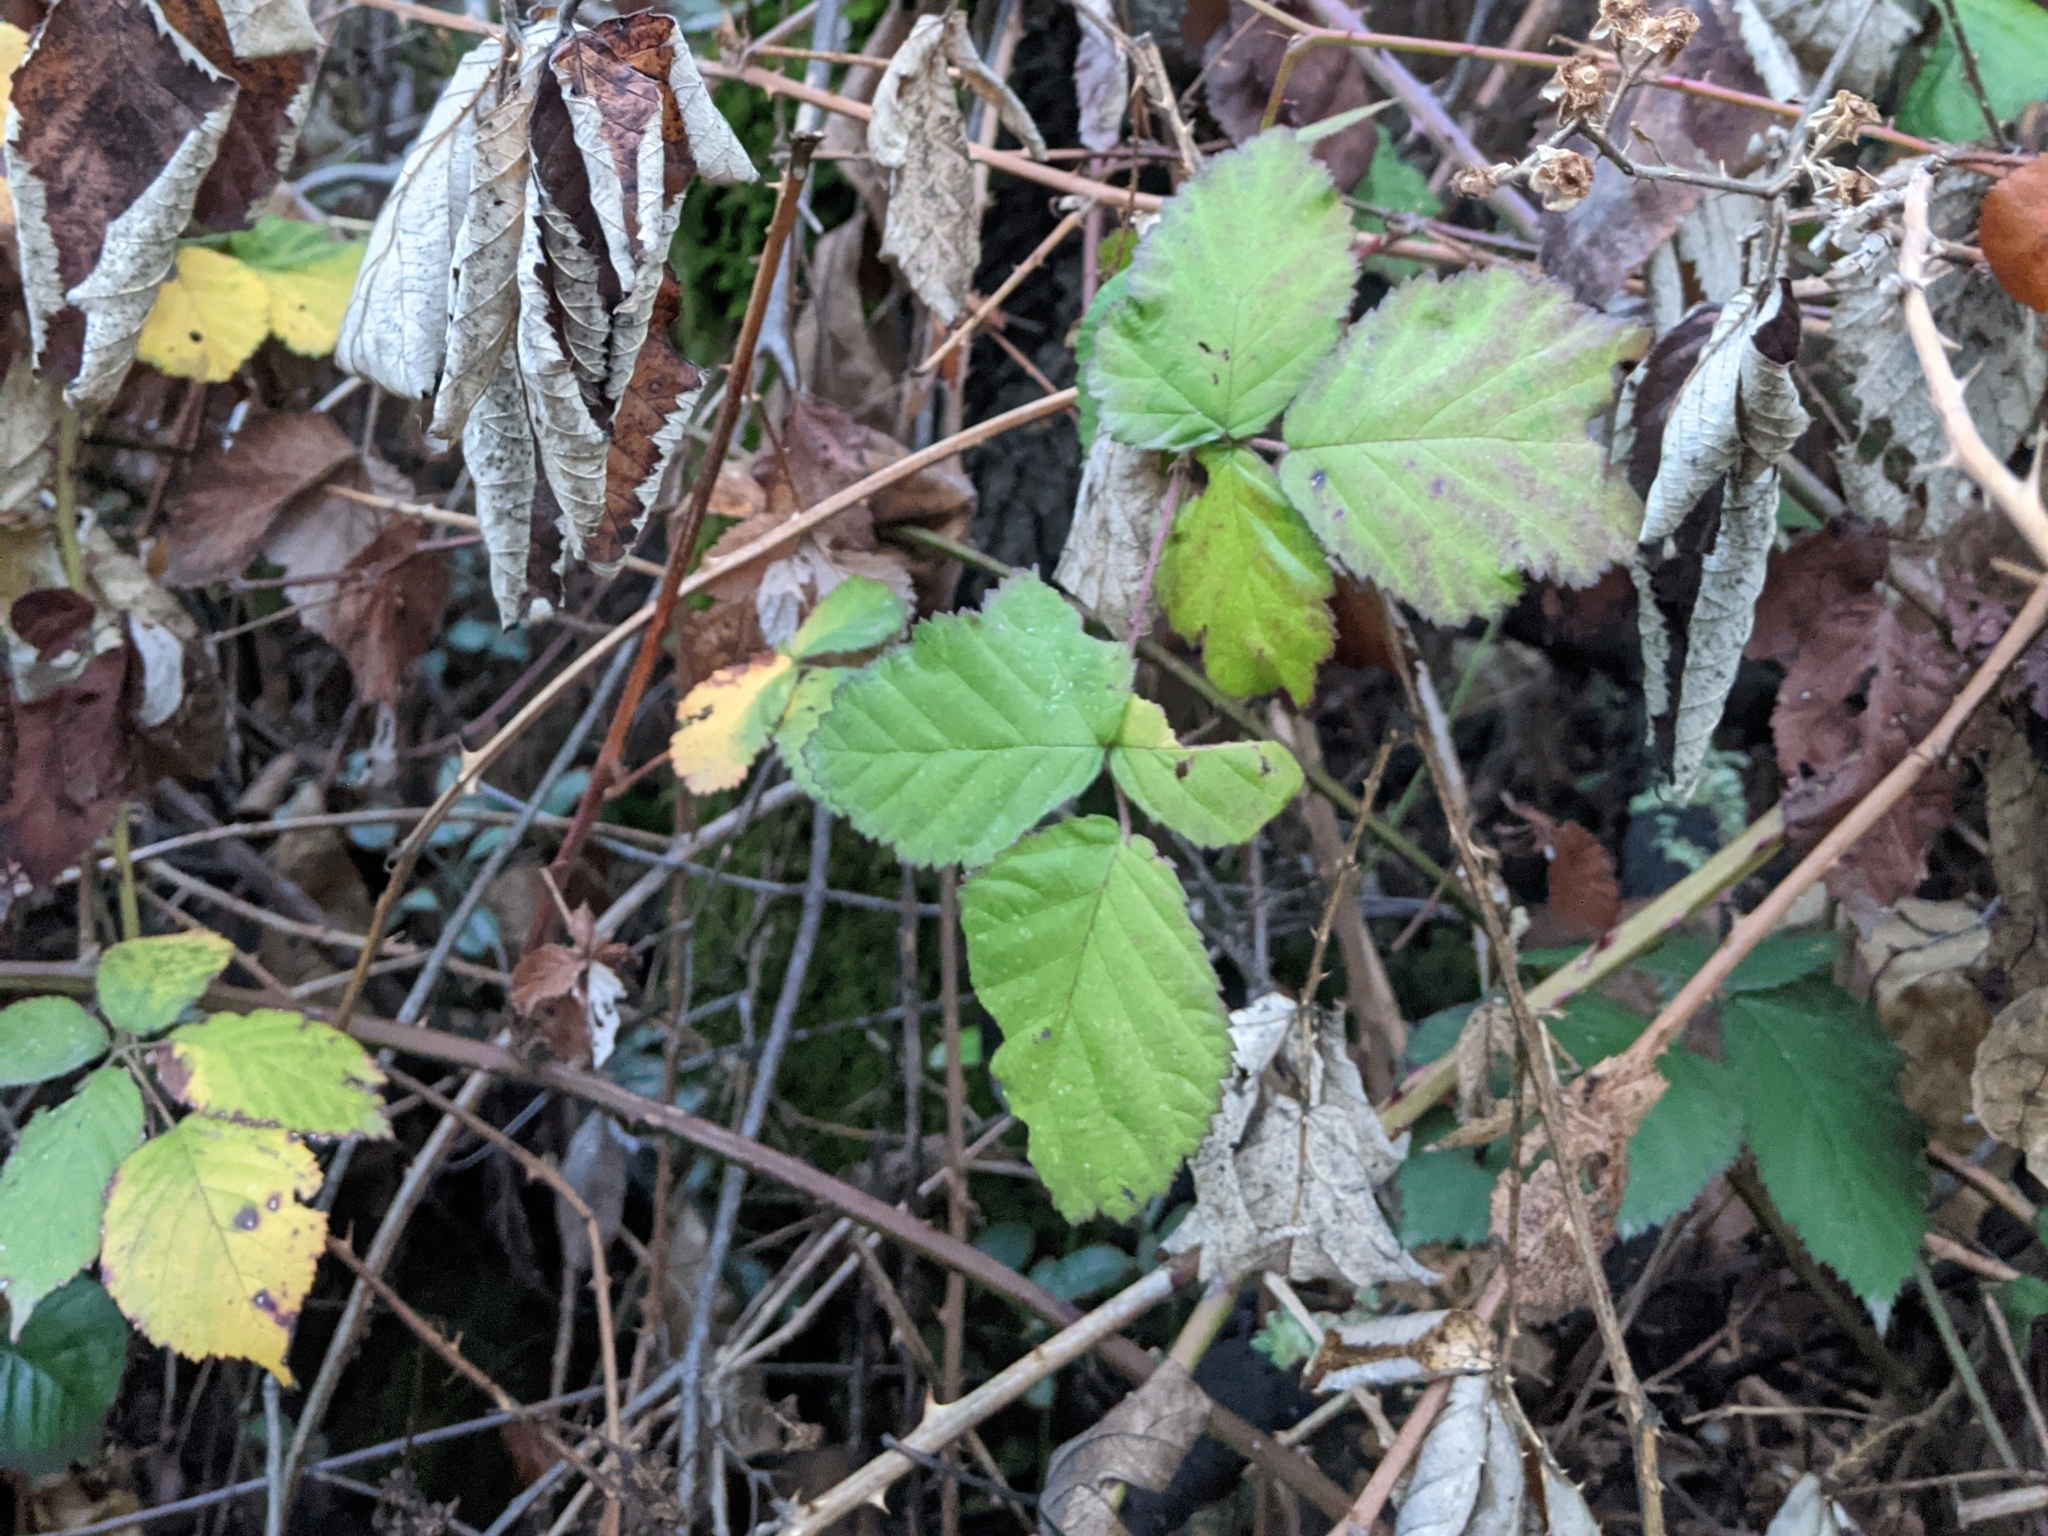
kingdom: Plantae
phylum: Tracheophyta
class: Magnoliopsida
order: Rosales
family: Rosaceae
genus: Rubus
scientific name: Rubus armeniacus
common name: Himalayan blackberry
